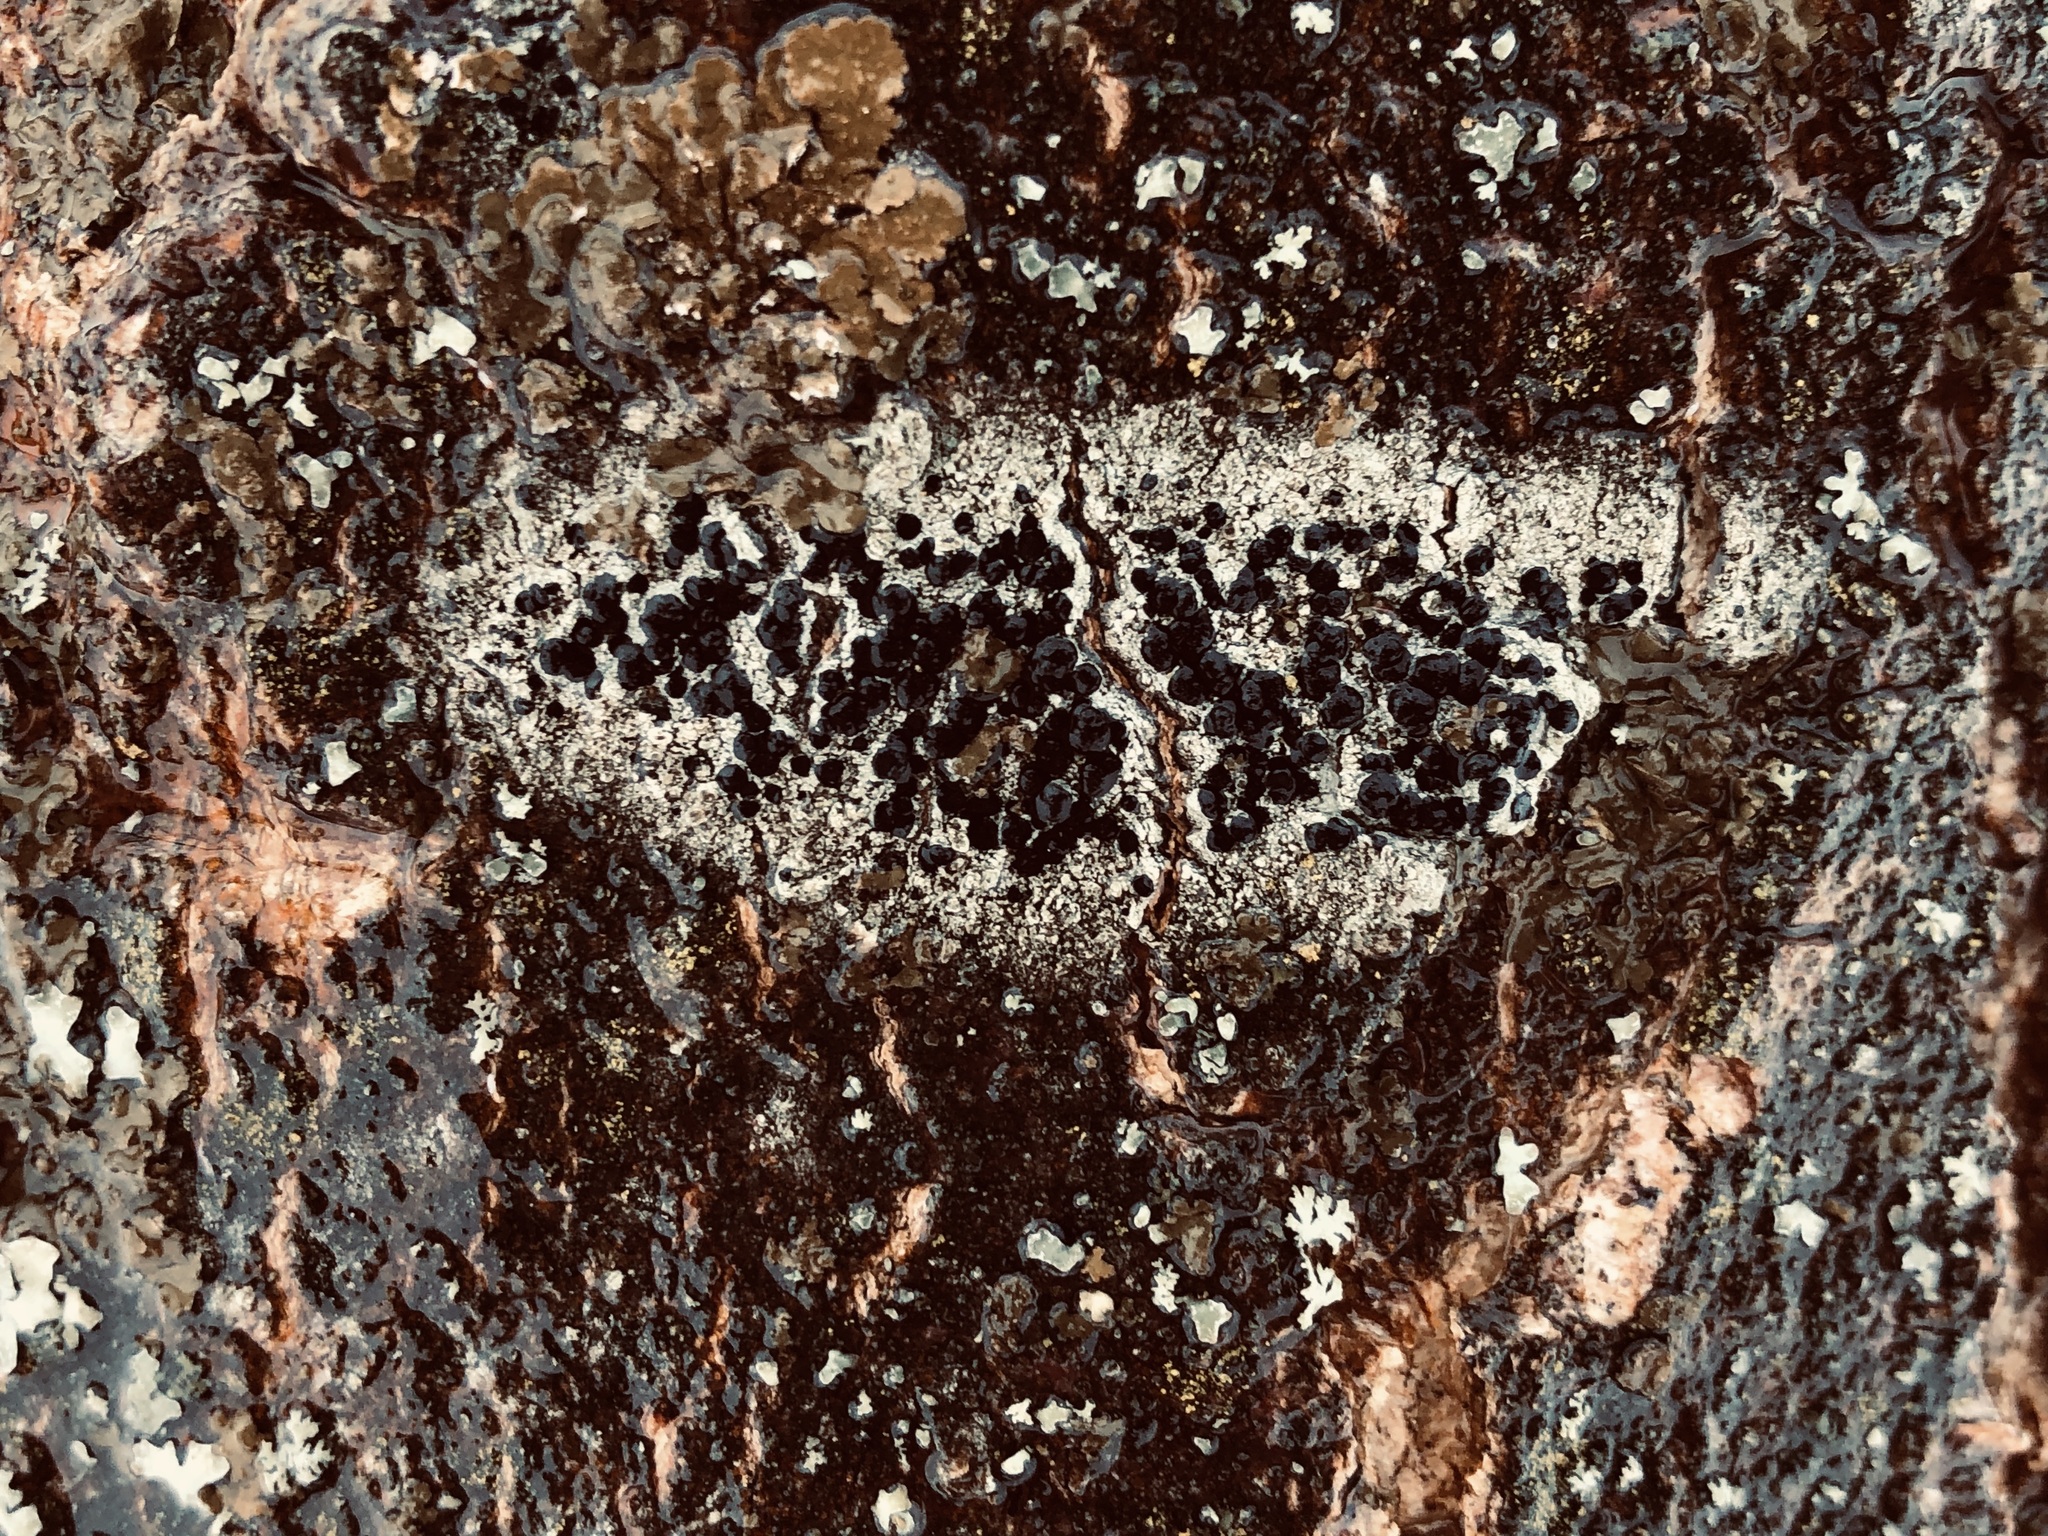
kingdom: Fungi
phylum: Ascomycota
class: Lecanoromycetes
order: Lecanorales
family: Lecanoraceae
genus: Lecidella
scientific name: Lecidella elaeochroma
